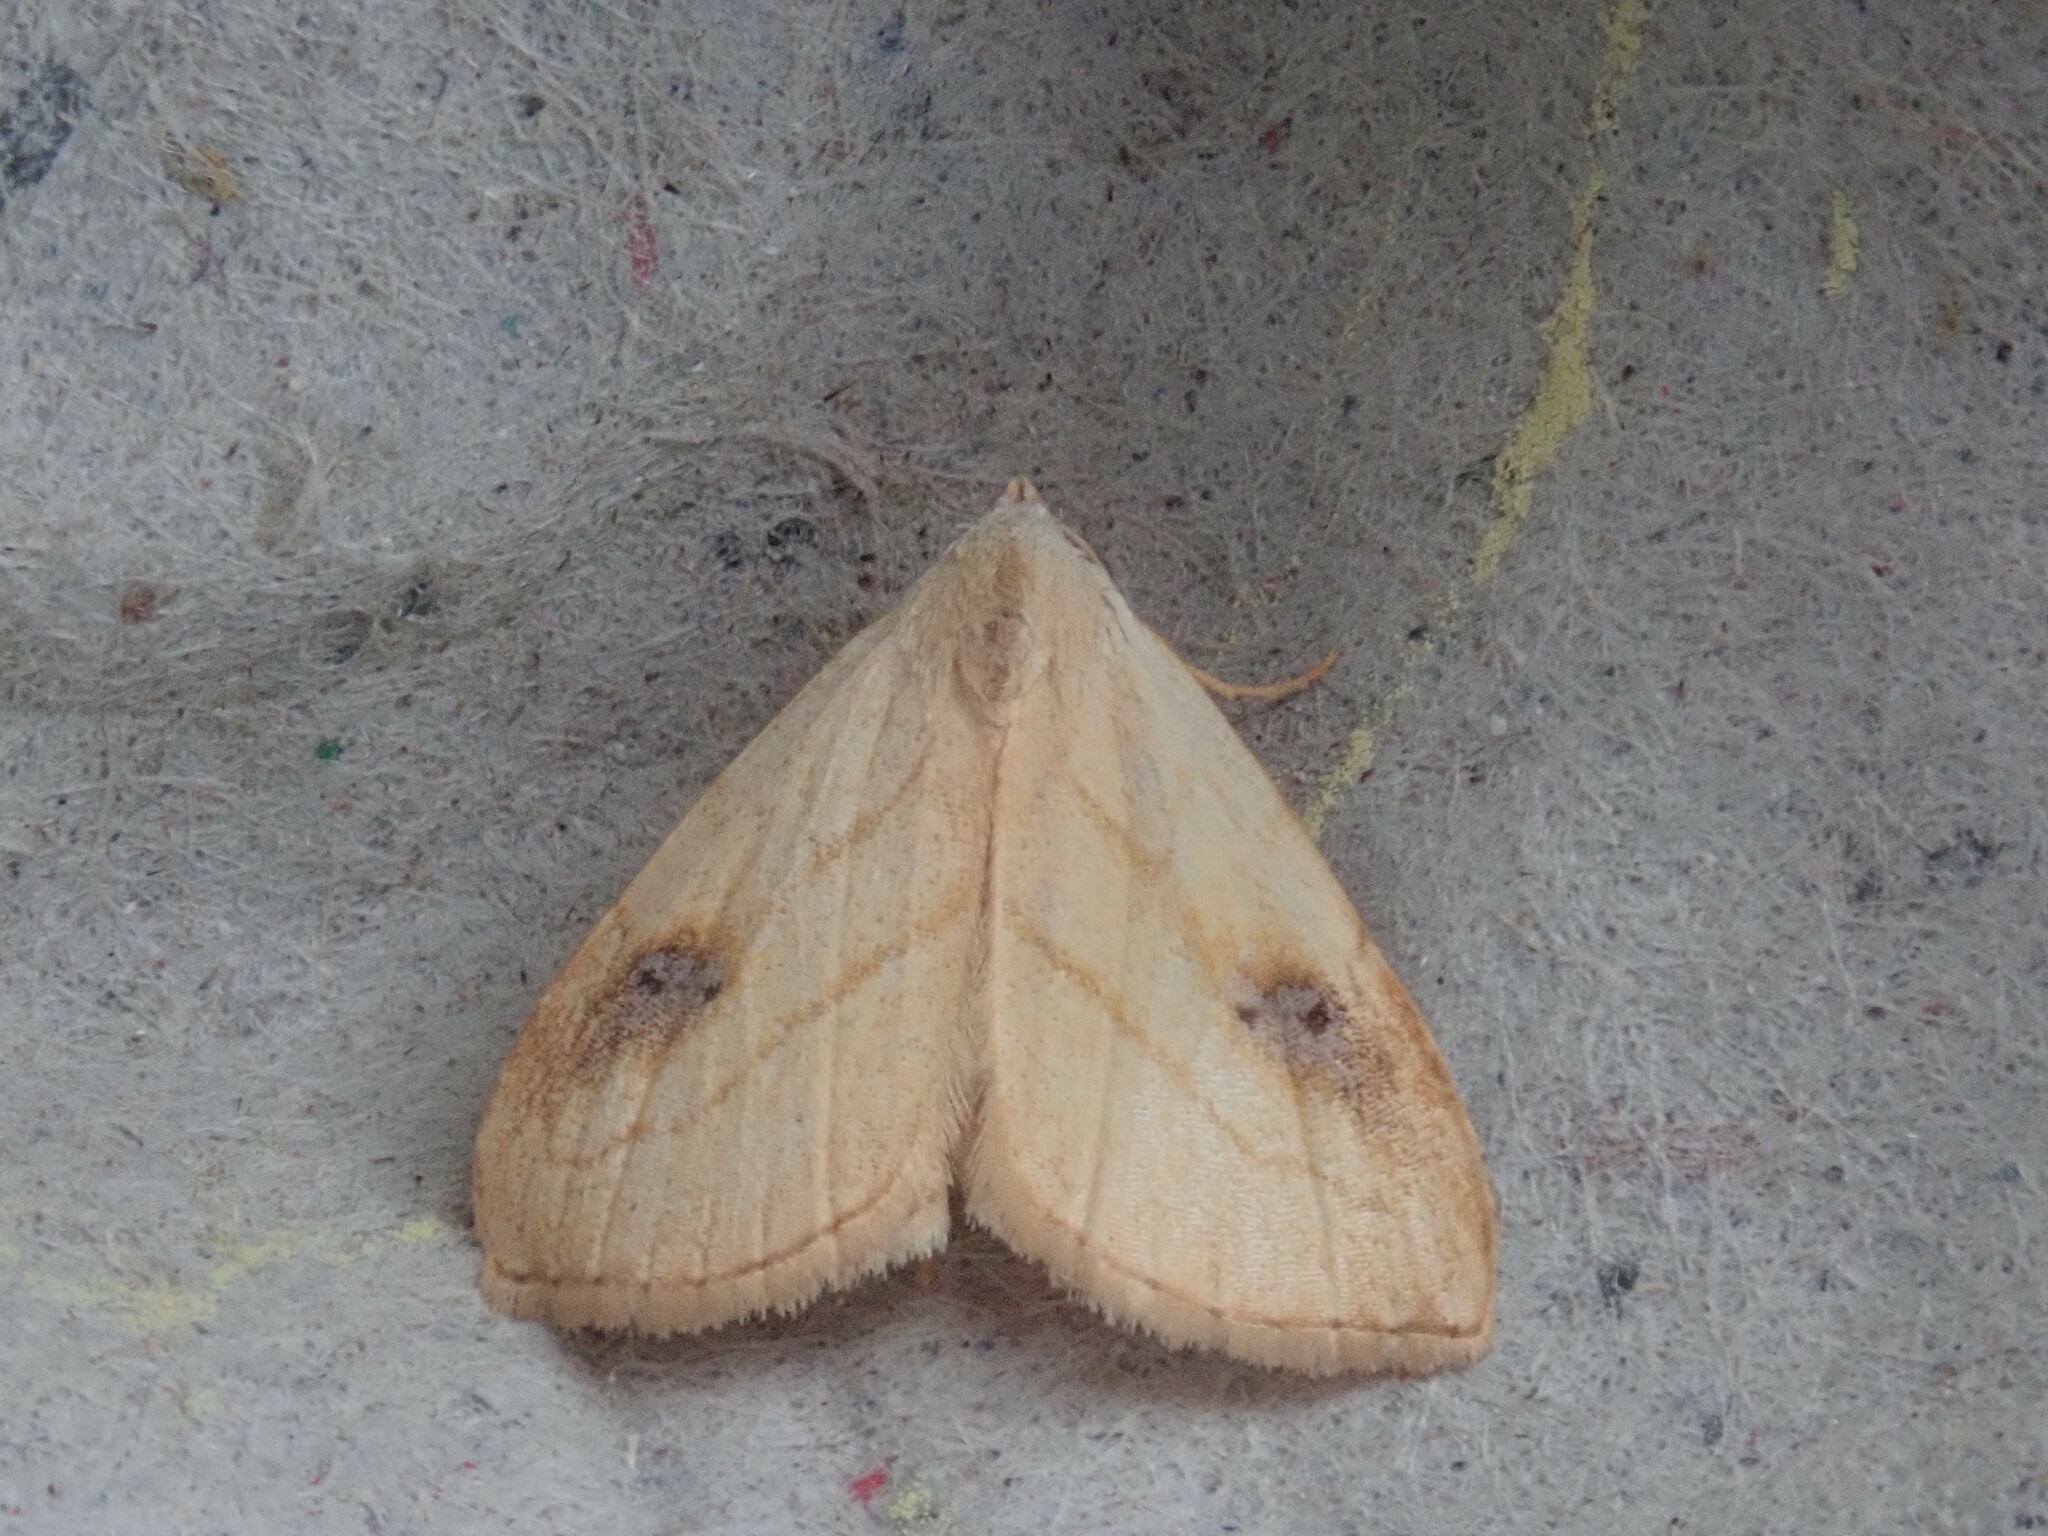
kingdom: Animalia
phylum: Arthropoda
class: Insecta
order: Lepidoptera
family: Erebidae
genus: Rivula
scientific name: Rivula propinqualis
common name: Spotted grass moth
